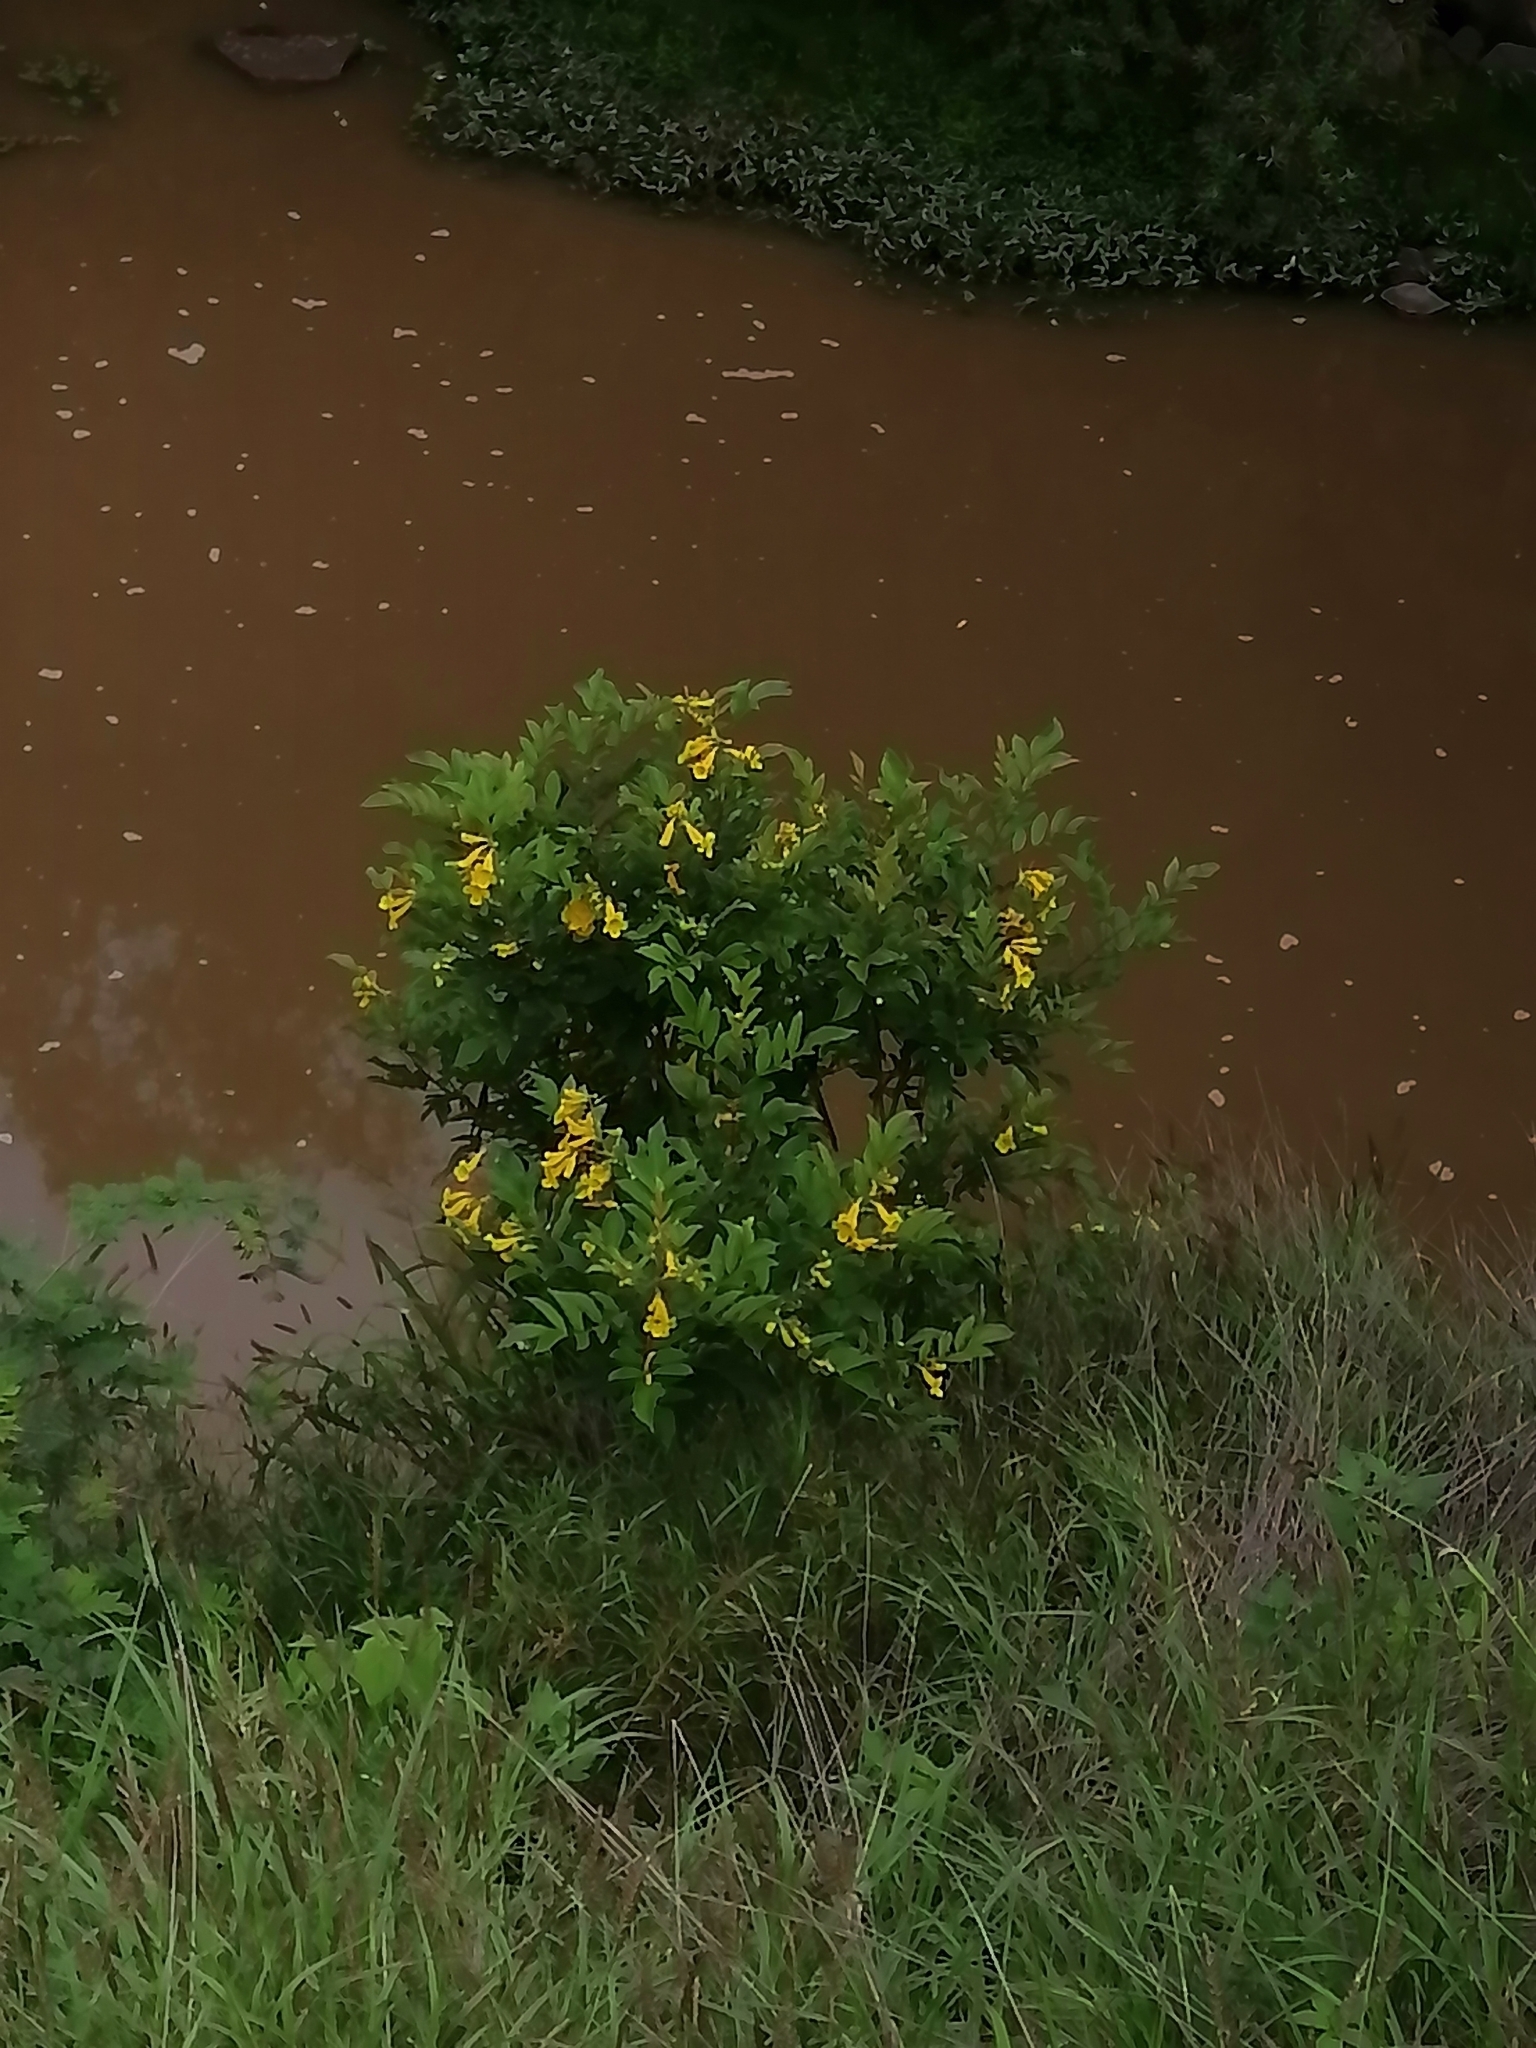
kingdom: Plantae
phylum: Tracheophyta
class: Magnoliopsida
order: Lamiales
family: Bignoniaceae
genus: Tecoma
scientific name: Tecoma stans
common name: Yellow trumpetbush
